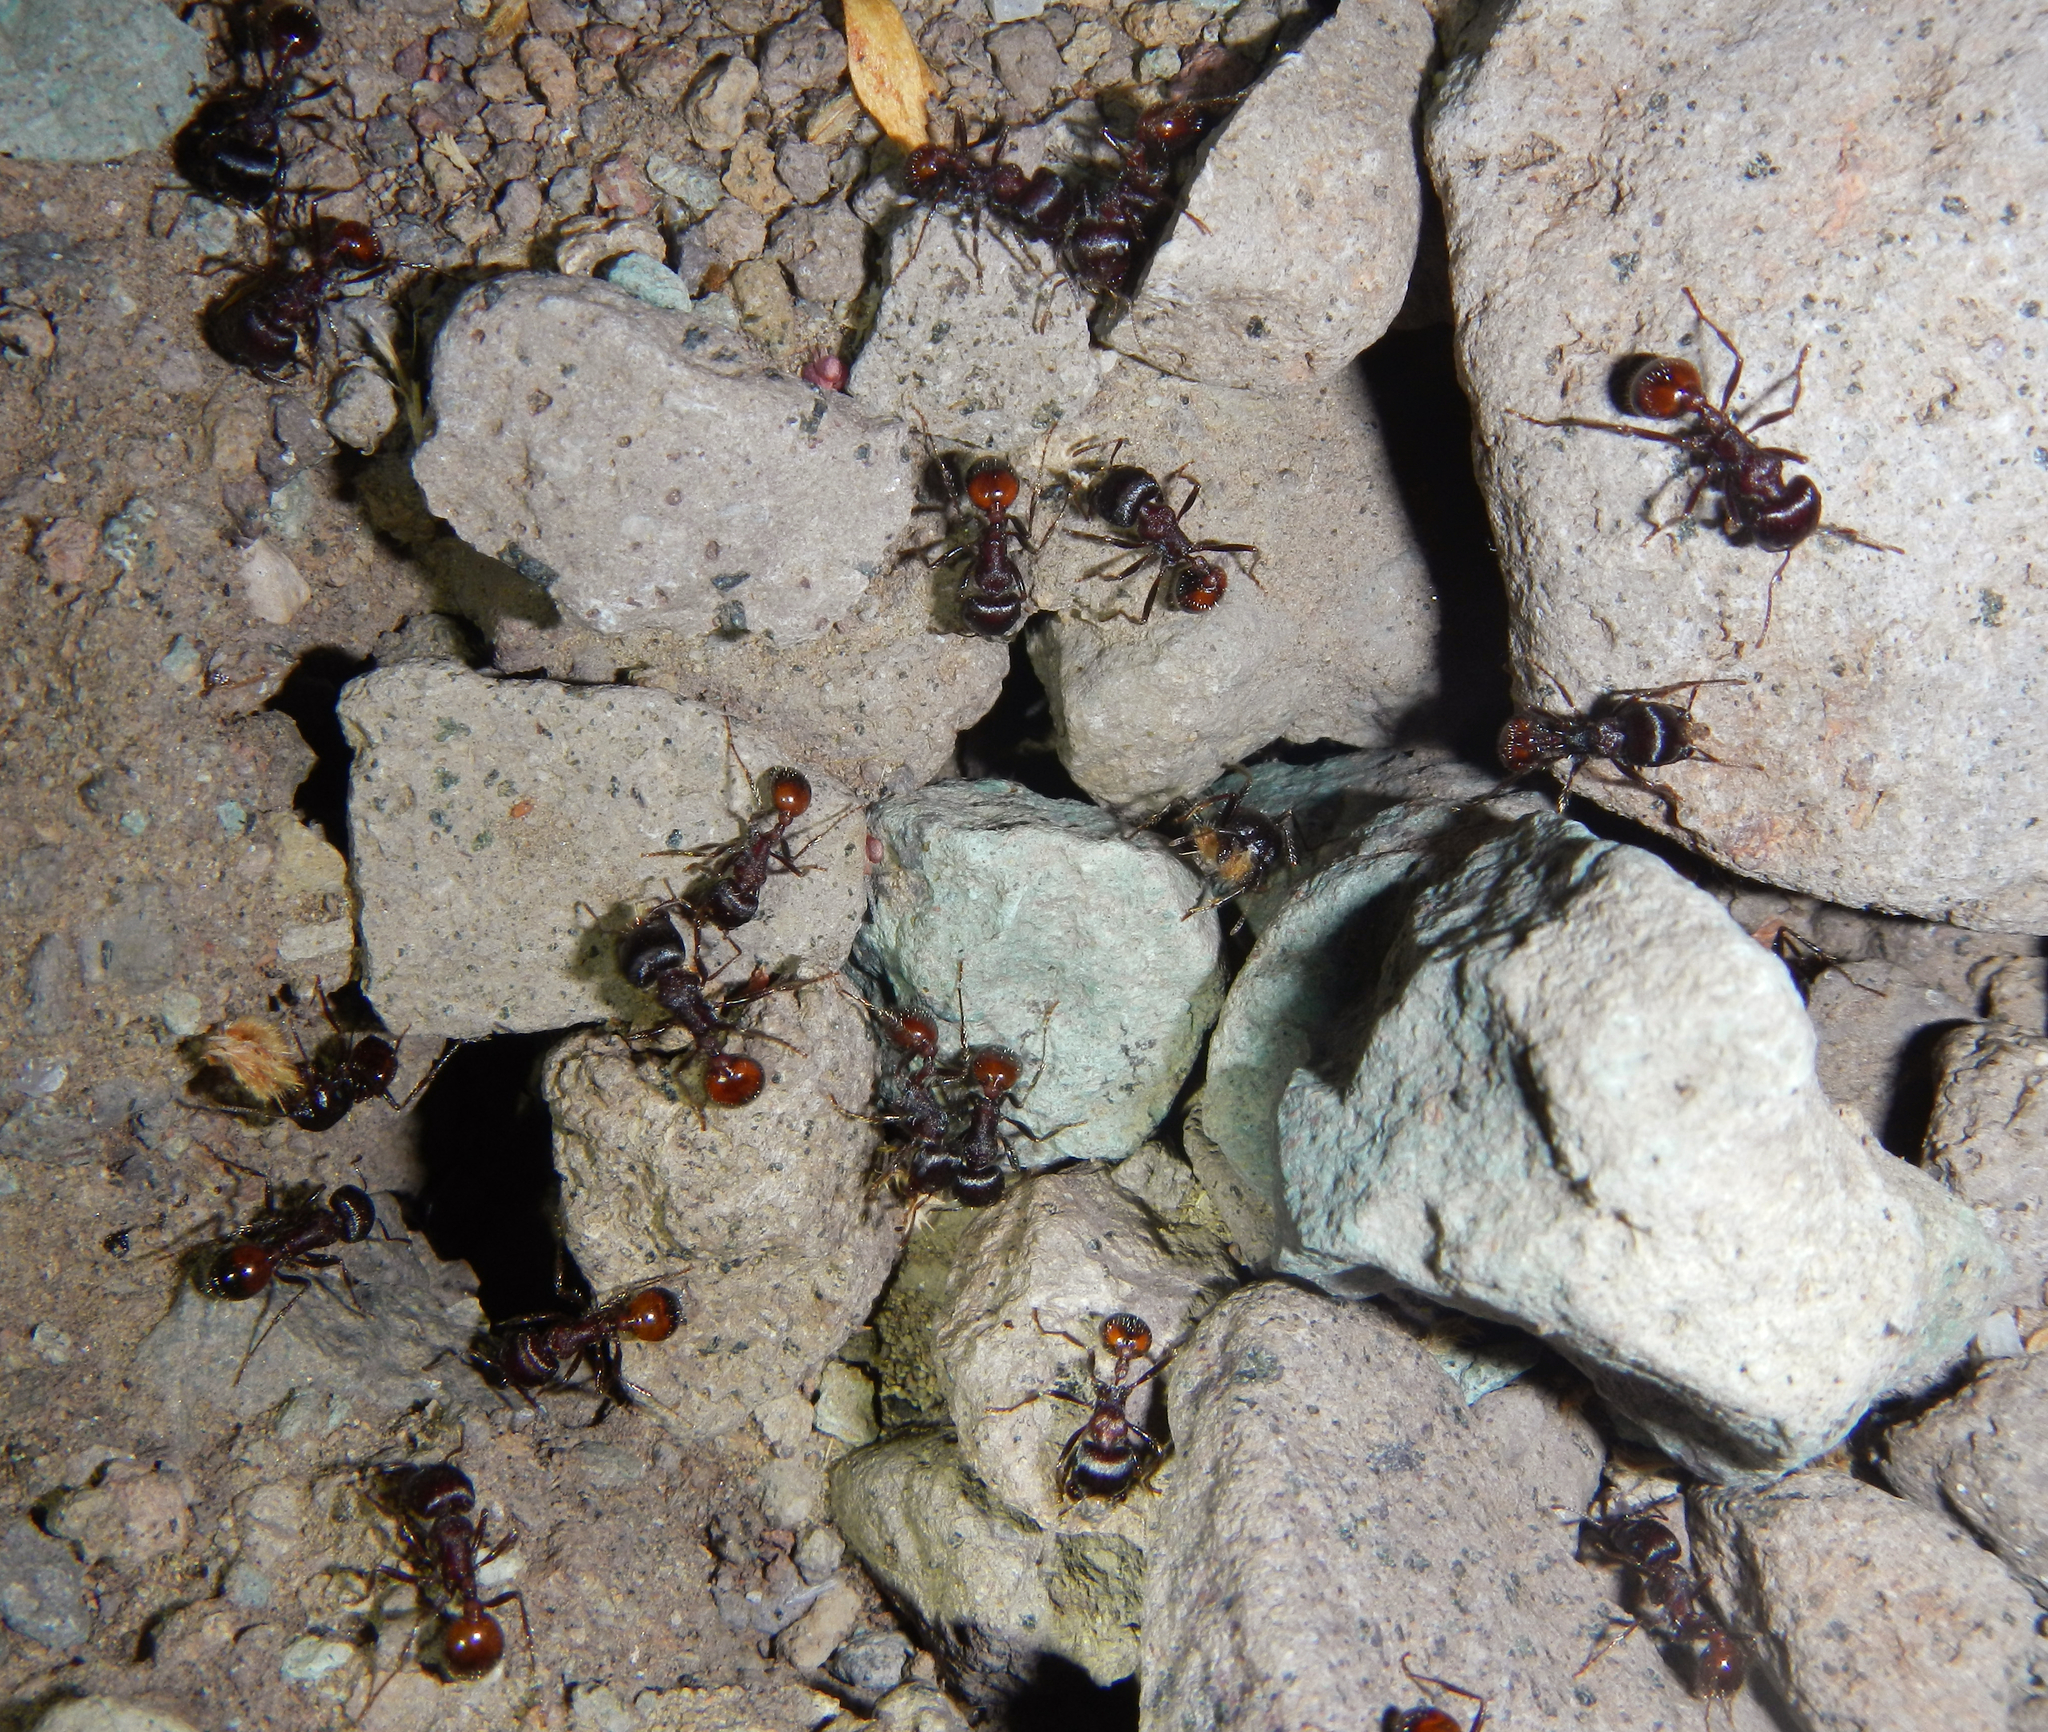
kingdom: Animalia
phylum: Arthropoda
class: Insecta
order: Hymenoptera
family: Formicidae
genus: Pogonomyrmex
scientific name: Pogonomyrmex rugosus
